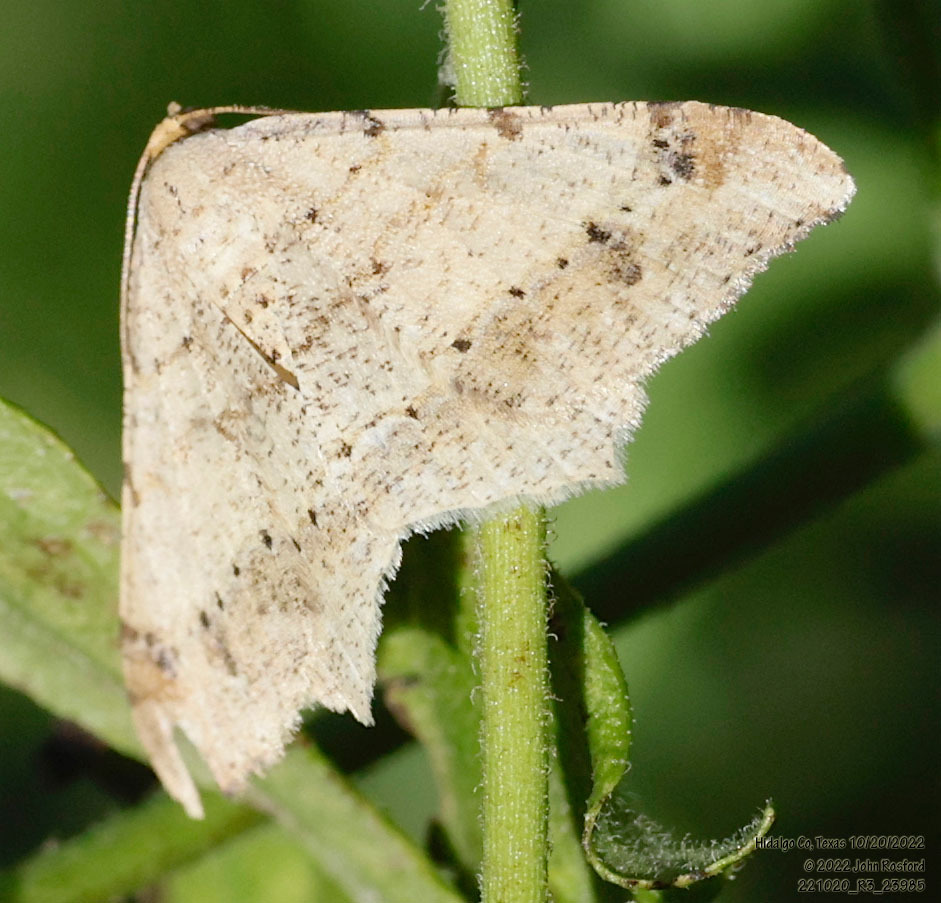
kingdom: Animalia
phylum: Arthropoda
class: Insecta
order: Lepidoptera
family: Geometridae
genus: Macaria
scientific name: Macaria abydata
